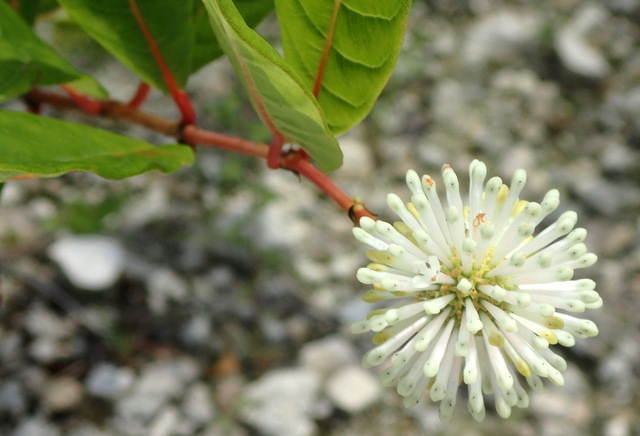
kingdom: Plantae
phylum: Tracheophyta
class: Magnoliopsida
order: Gentianales
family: Rubiaceae
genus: Cephalanthus
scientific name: Cephalanthus occidentalis
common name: Button-willow
